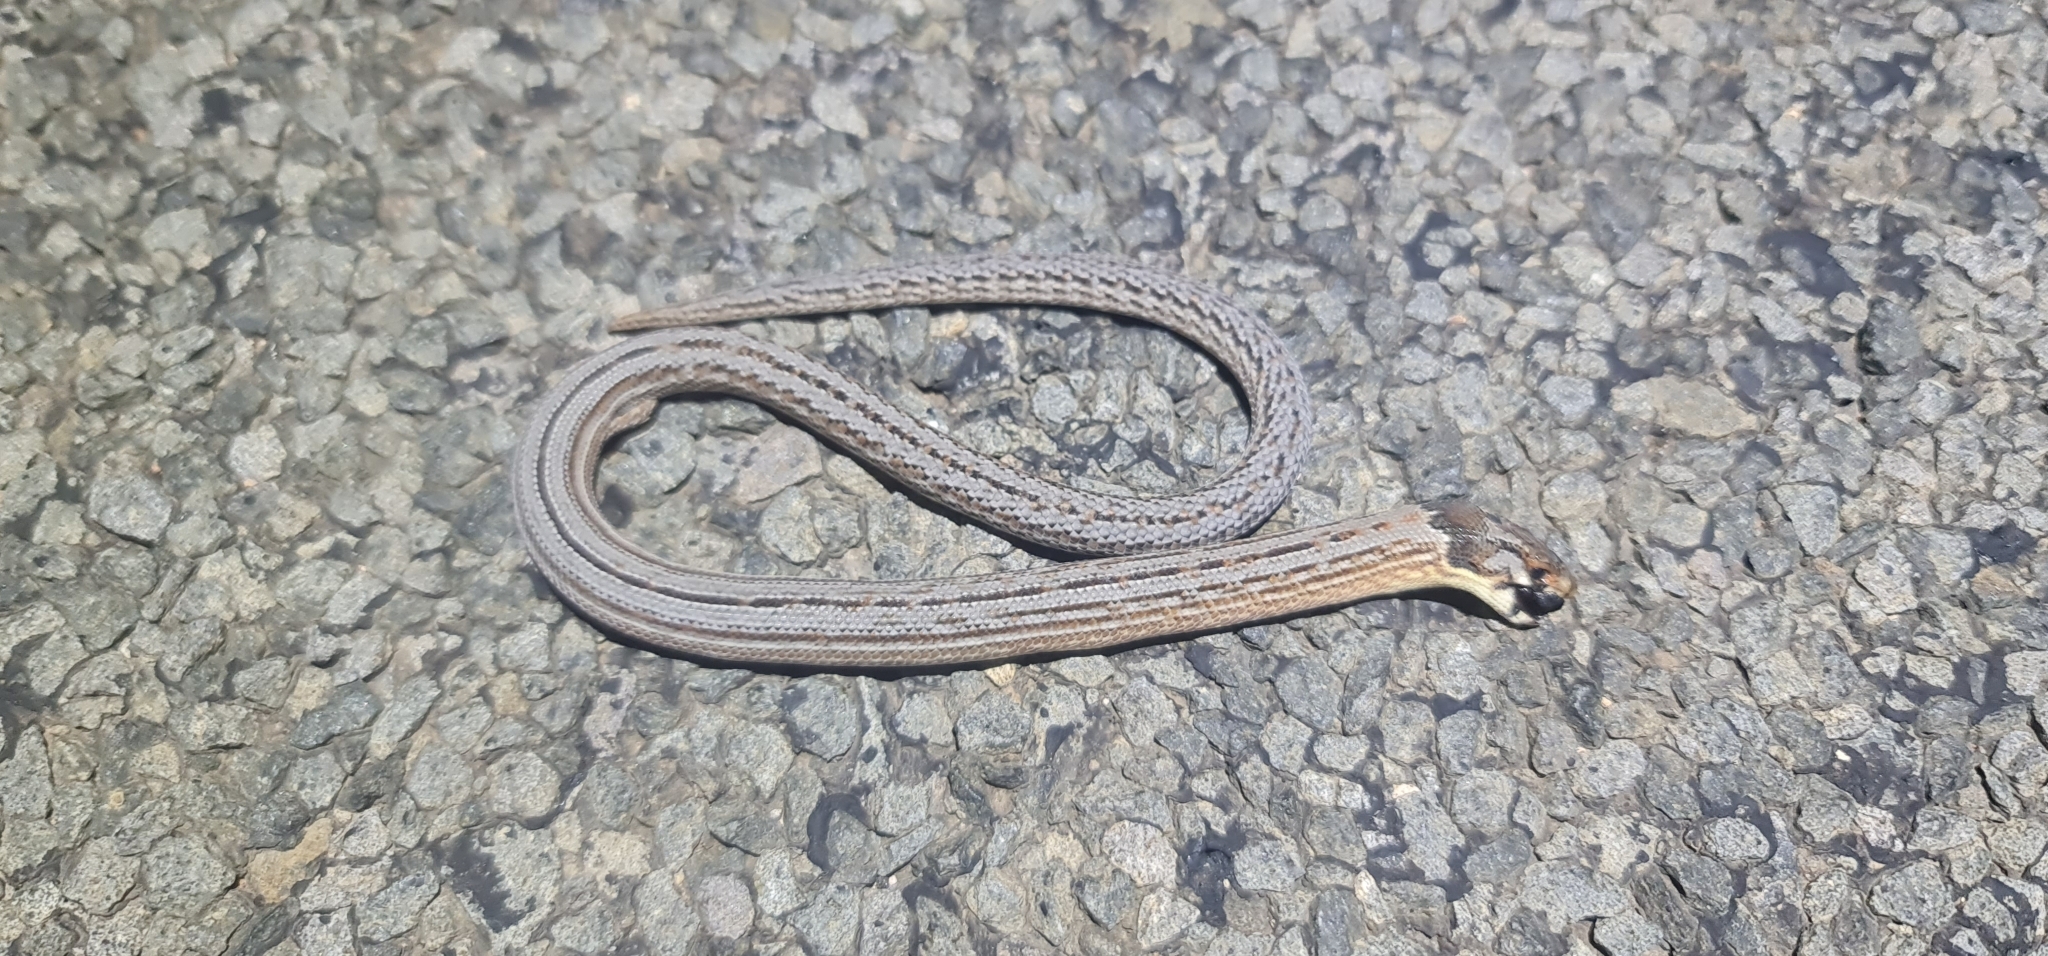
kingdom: Animalia
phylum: Chordata
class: Squamata
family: Pygopodidae
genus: Pygopus
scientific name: Pygopus schraderi
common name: Eastern scaly-foot
